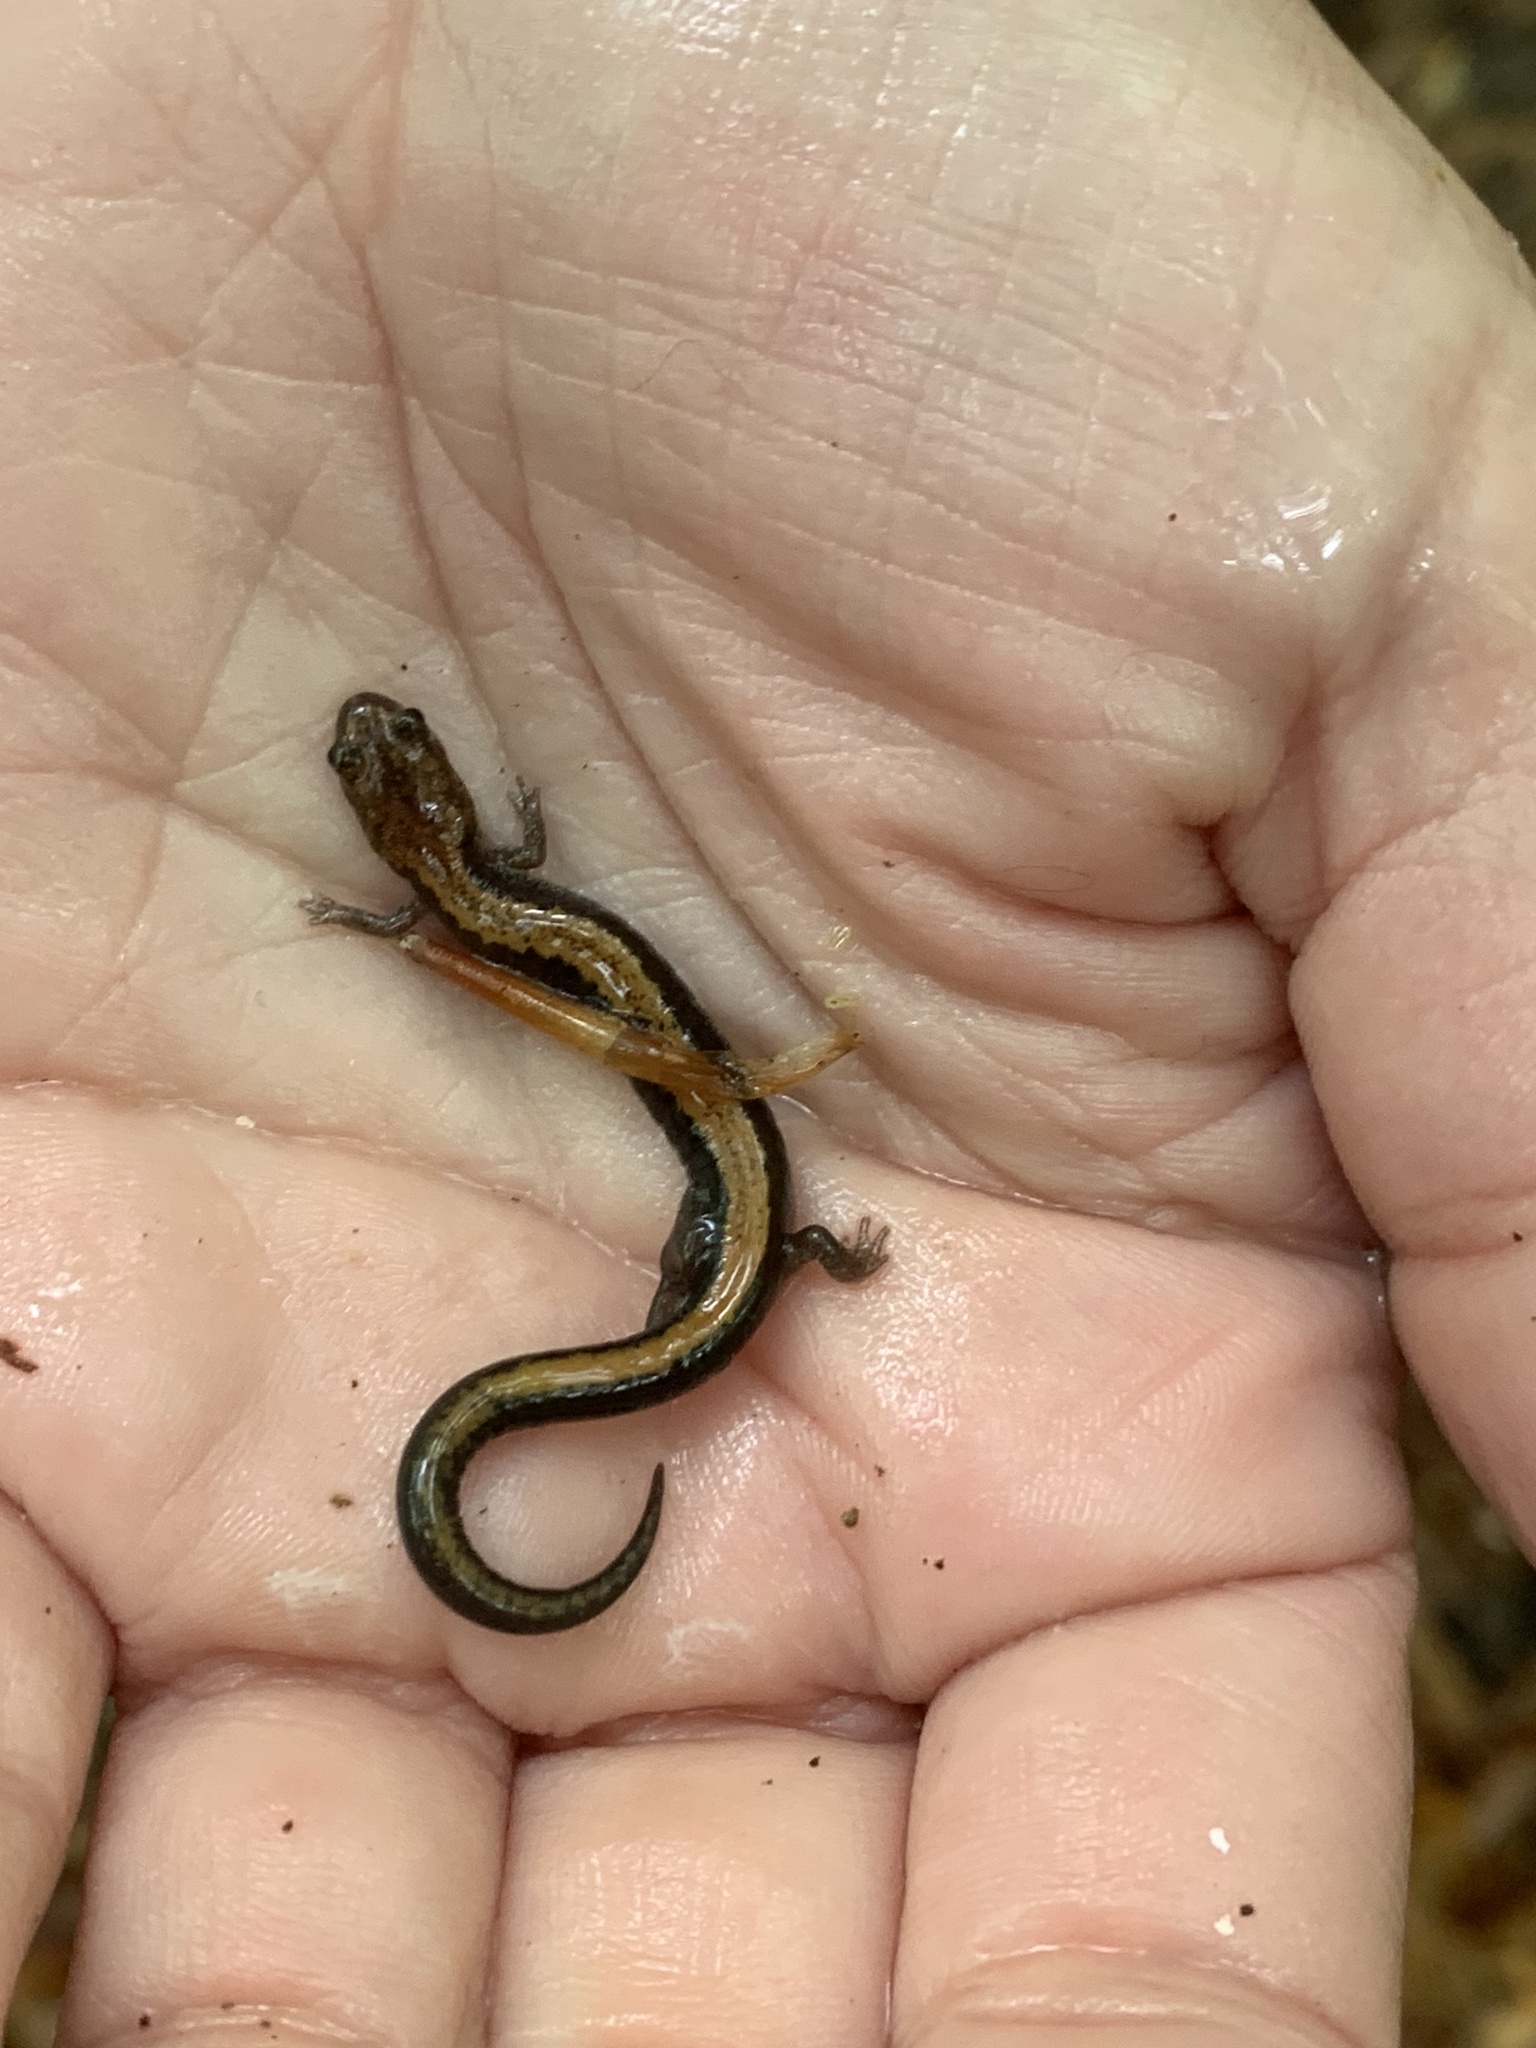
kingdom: Animalia
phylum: Chordata
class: Amphibia
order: Caudata
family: Plethodontidae
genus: Plethodon
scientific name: Plethodon cinereus
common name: Redback salamander
